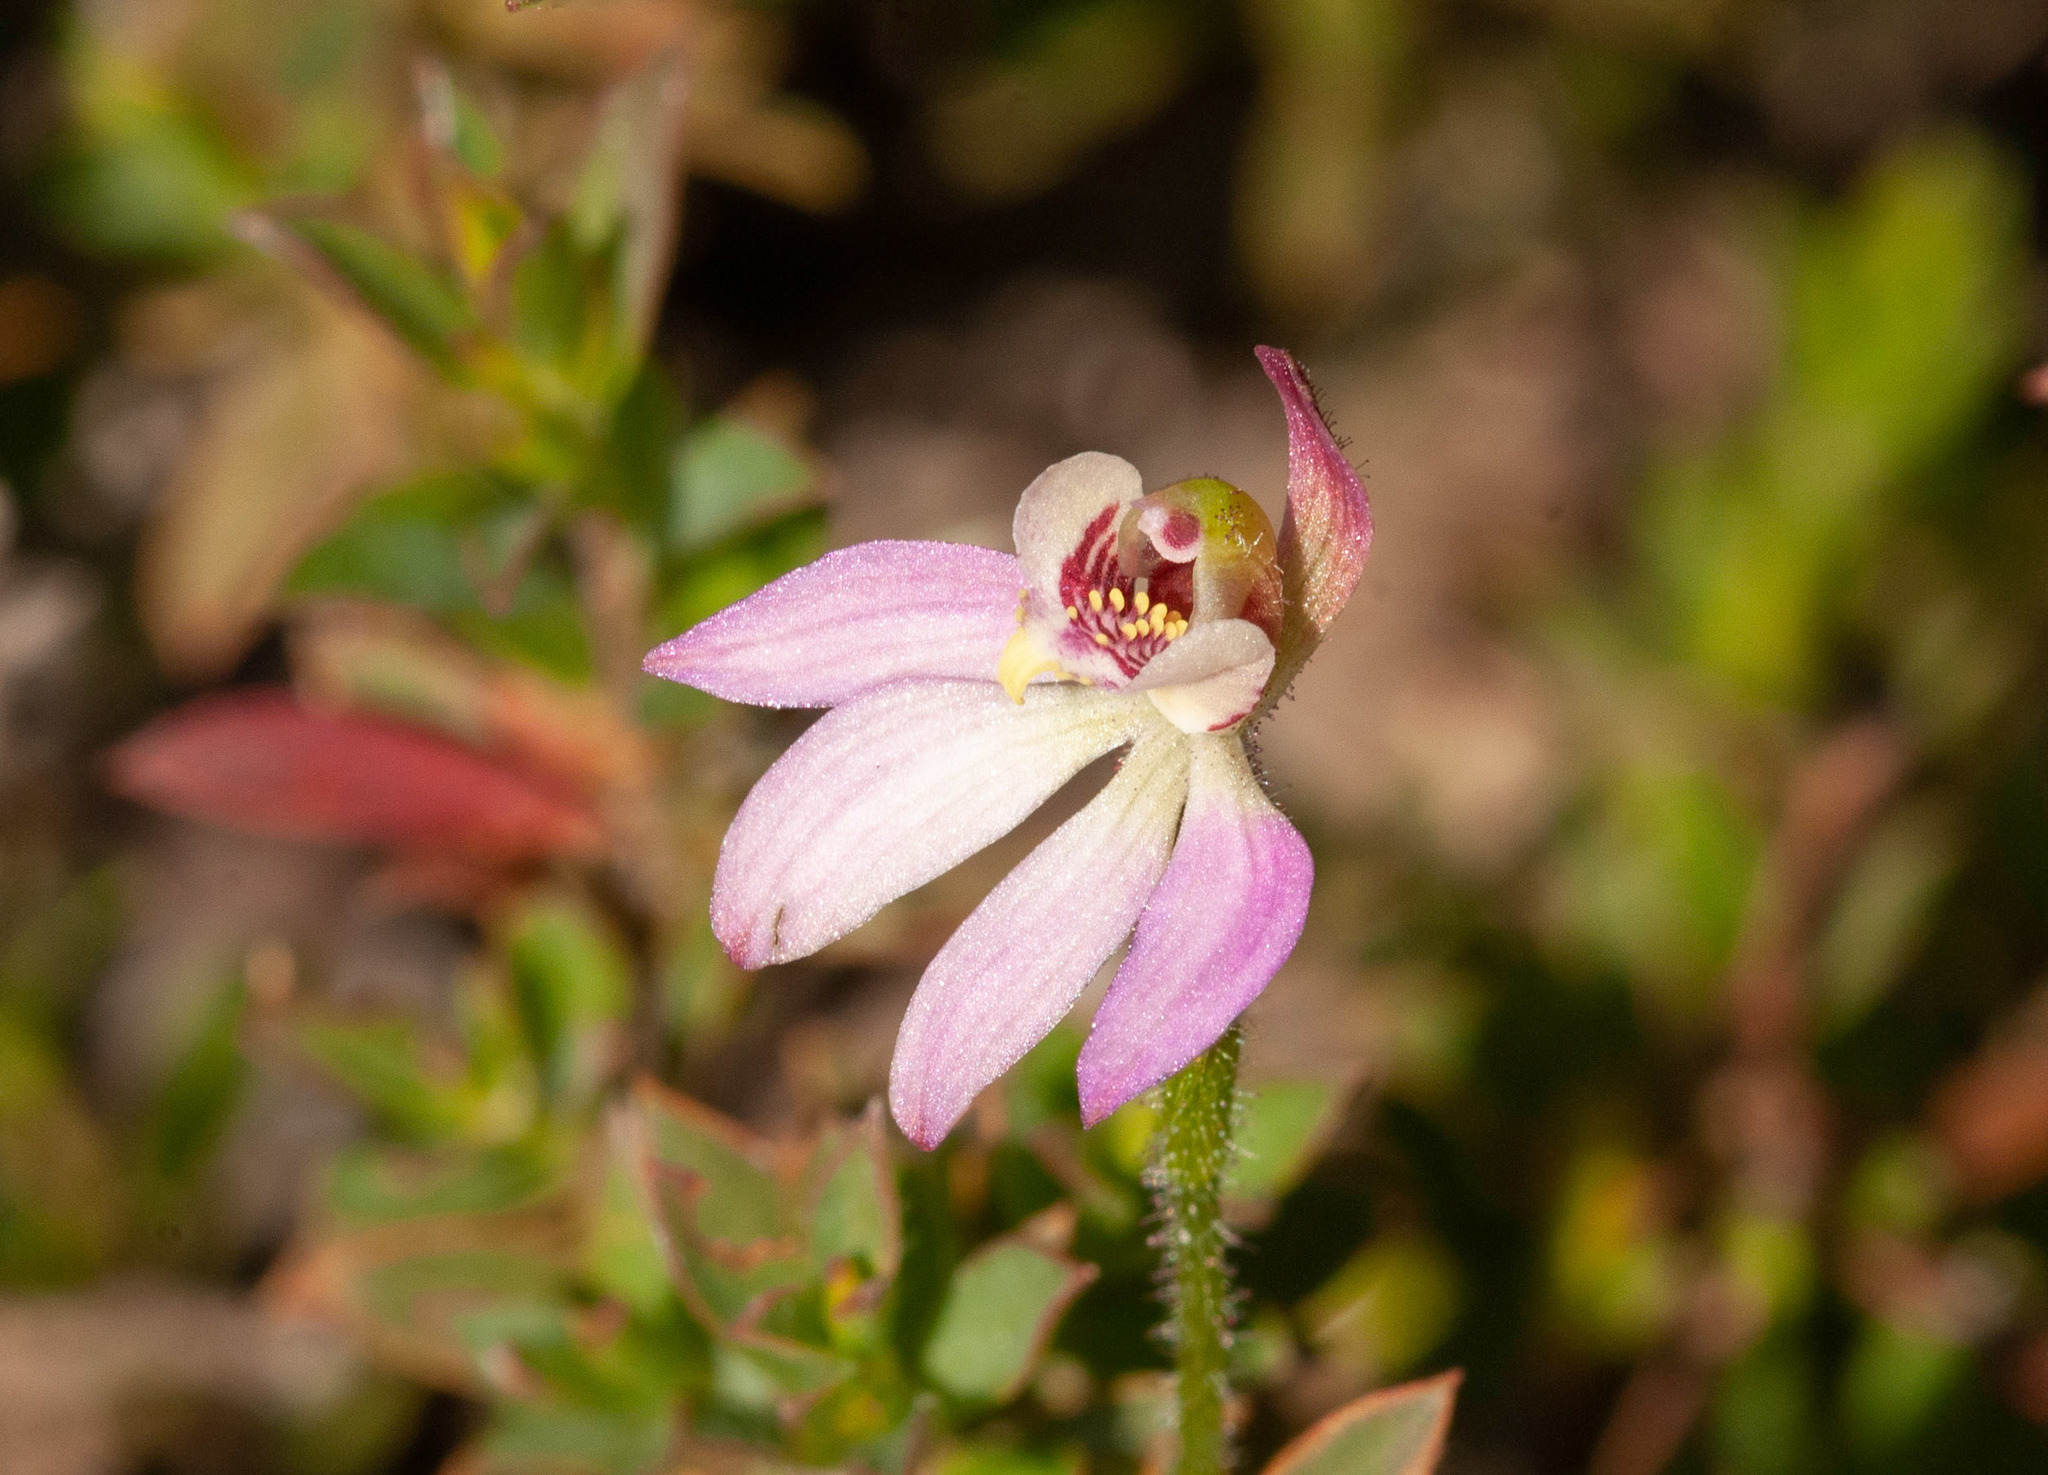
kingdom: Plantae
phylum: Tracheophyta
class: Liliopsida
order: Asparagales
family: Orchidaceae
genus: Caladenia
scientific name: Caladenia pusilla
